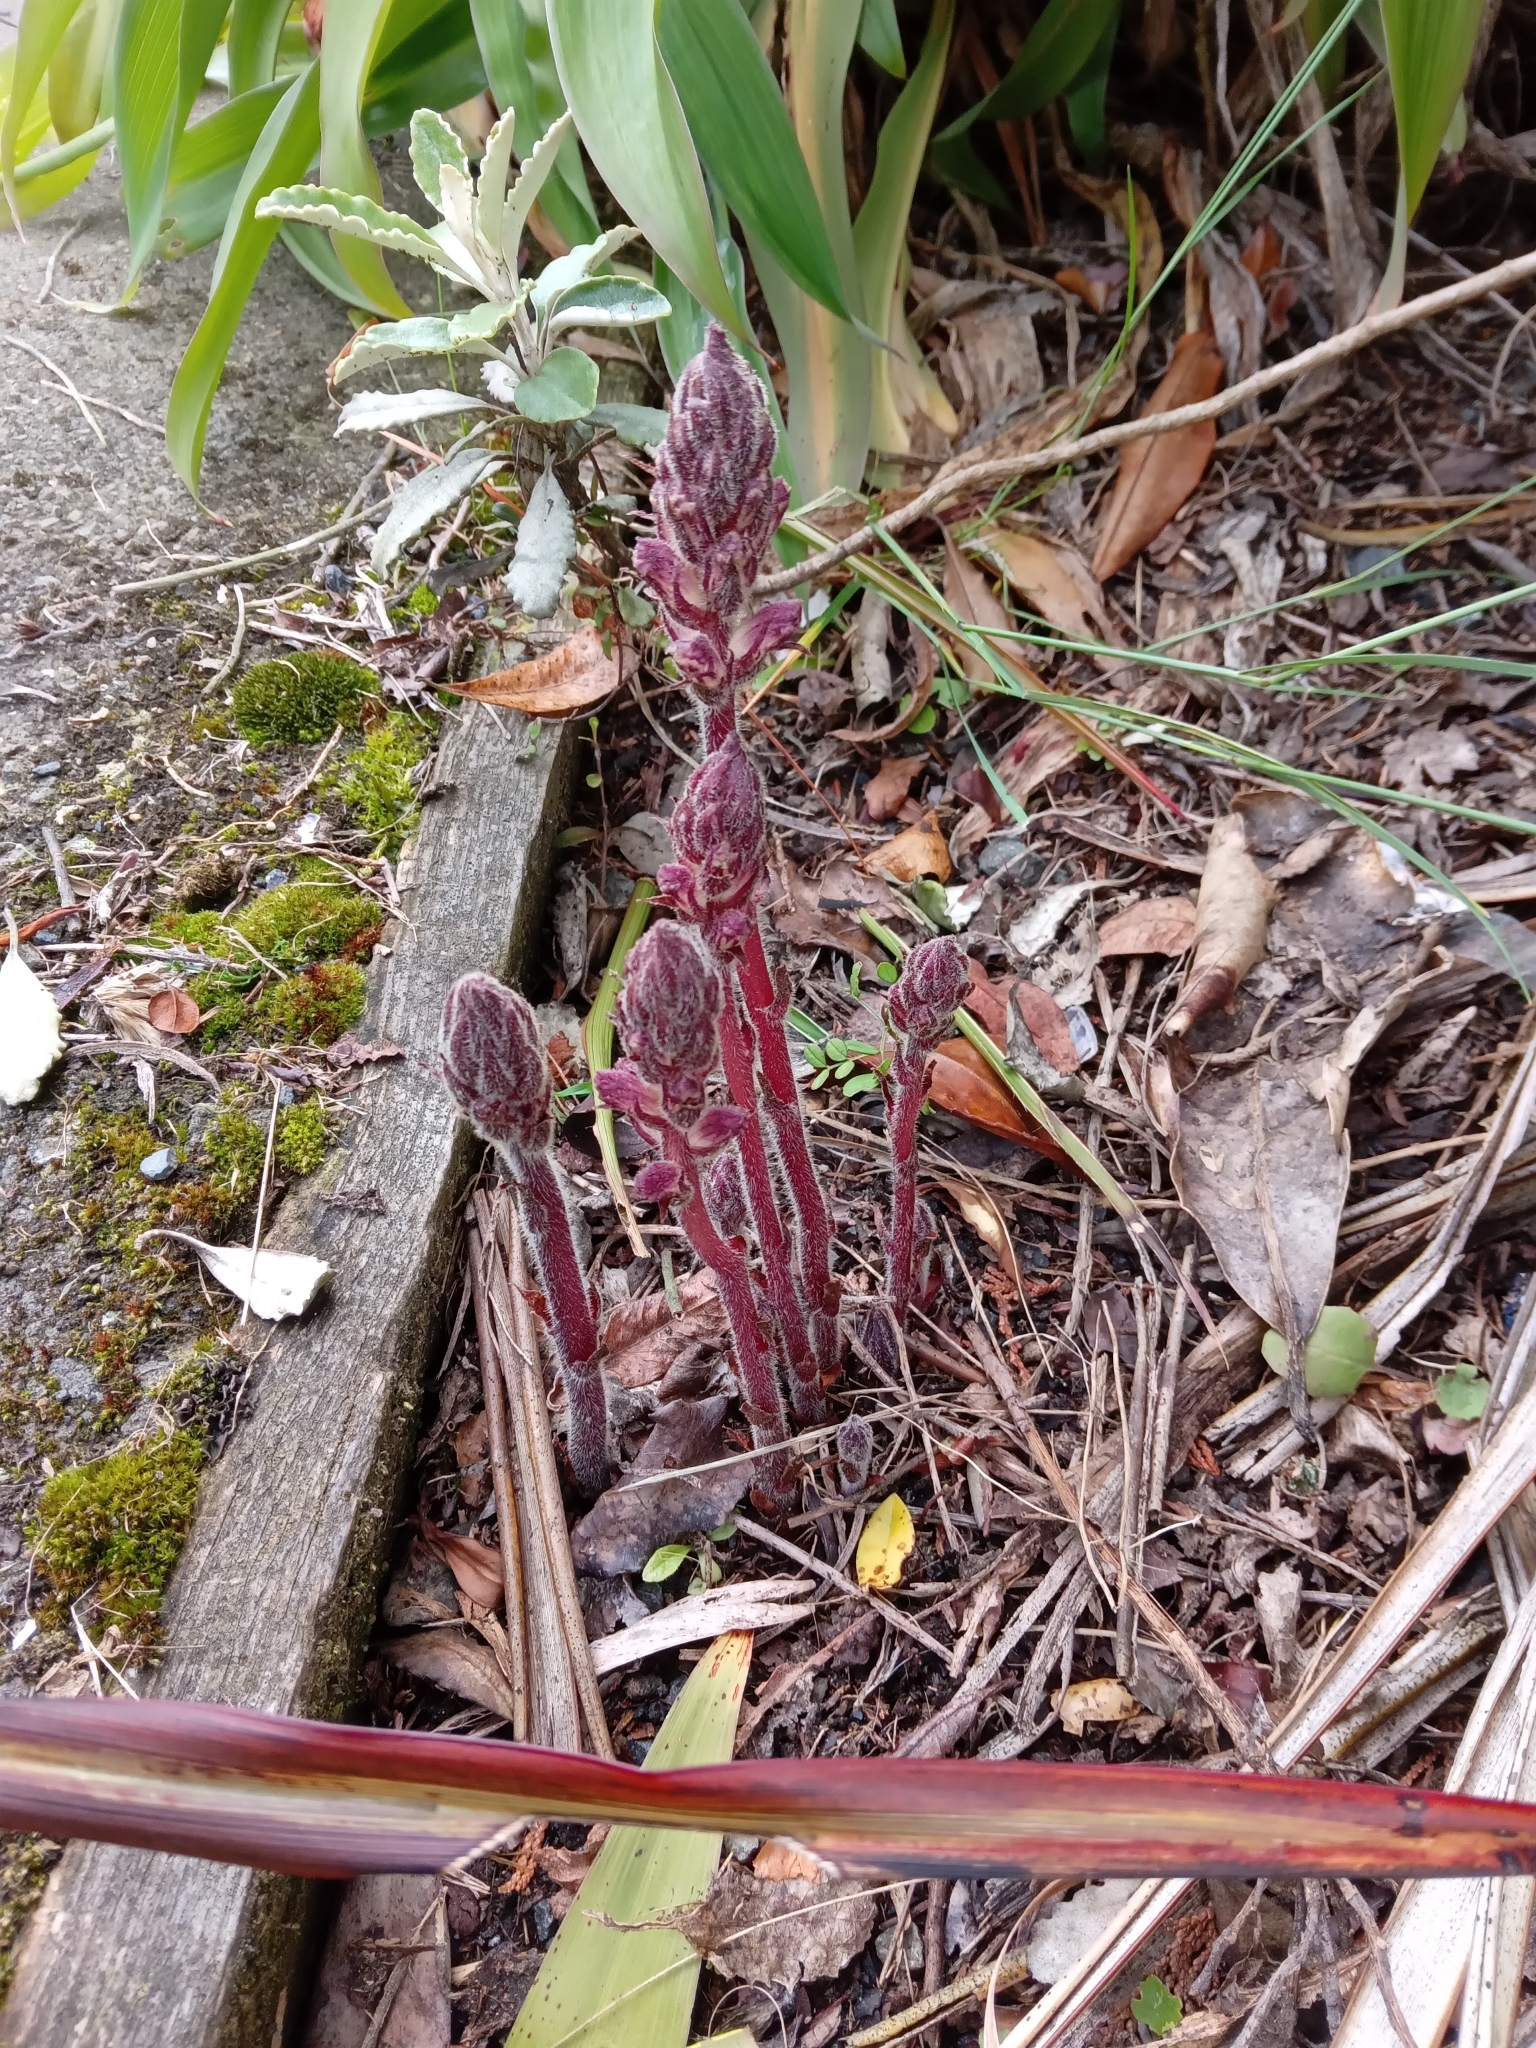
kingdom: Plantae
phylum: Tracheophyta
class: Magnoliopsida
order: Lamiales
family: Orobanchaceae
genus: Orobanche
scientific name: Orobanche minor
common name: Common broomrape
